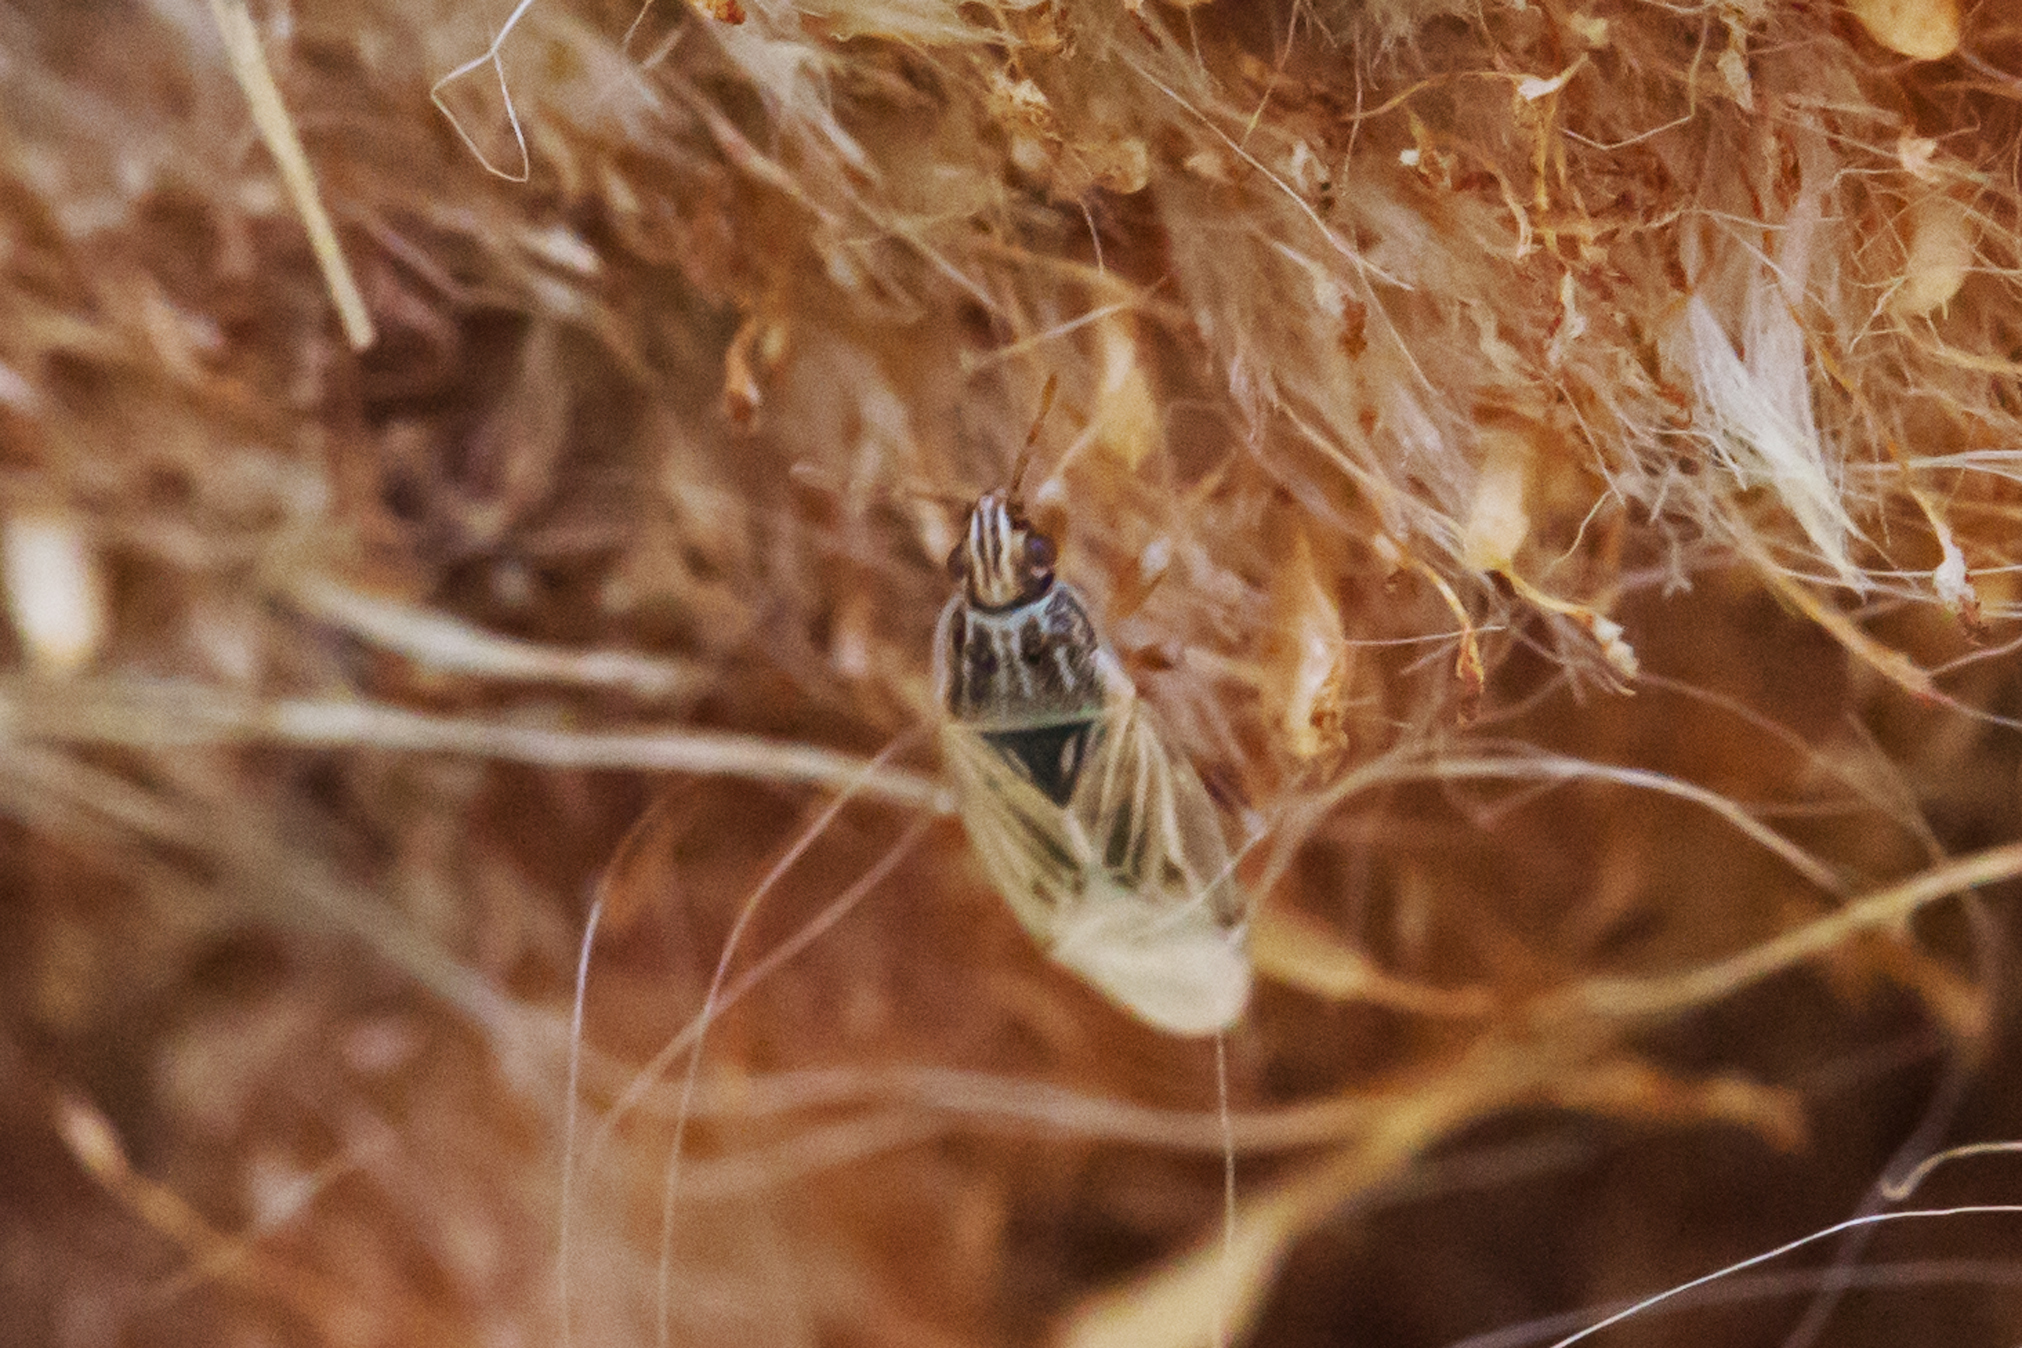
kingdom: Animalia
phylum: Arthropoda
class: Insecta
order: Hemiptera
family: Artheneidae
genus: Holcocranum
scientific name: Holcocranum saturejae
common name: Cattail bug
